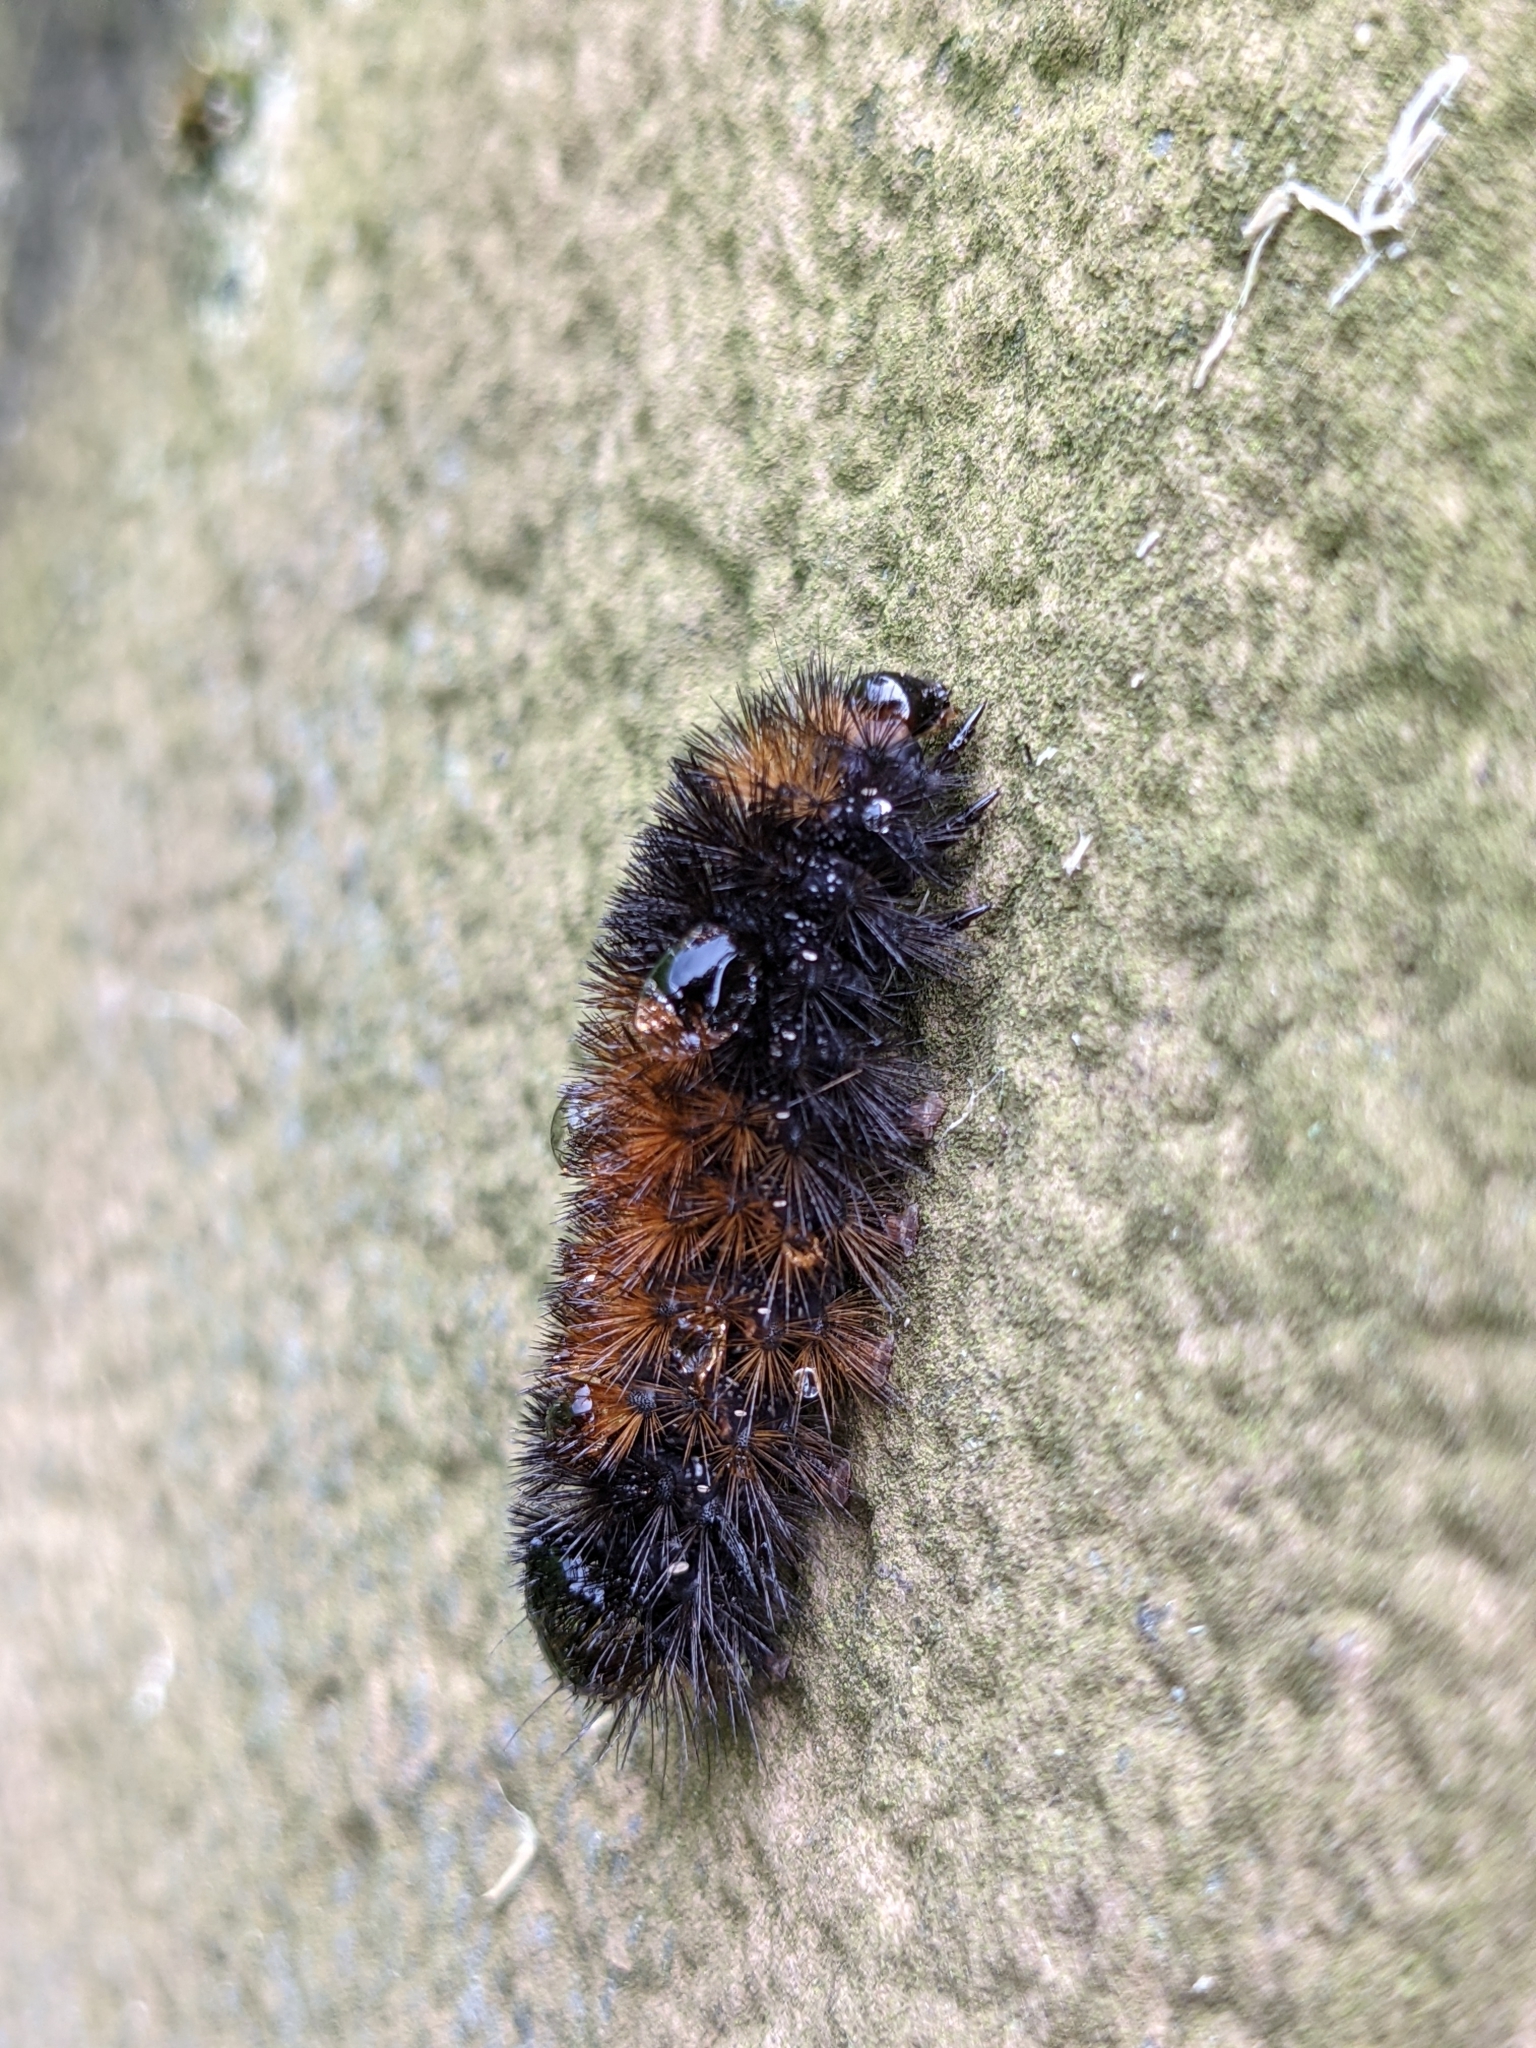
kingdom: Animalia
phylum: Arthropoda
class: Insecta
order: Lepidoptera
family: Erebidae
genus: Pyrrharctia
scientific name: Pyrrharctia isabella
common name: Isabella tiger moth
